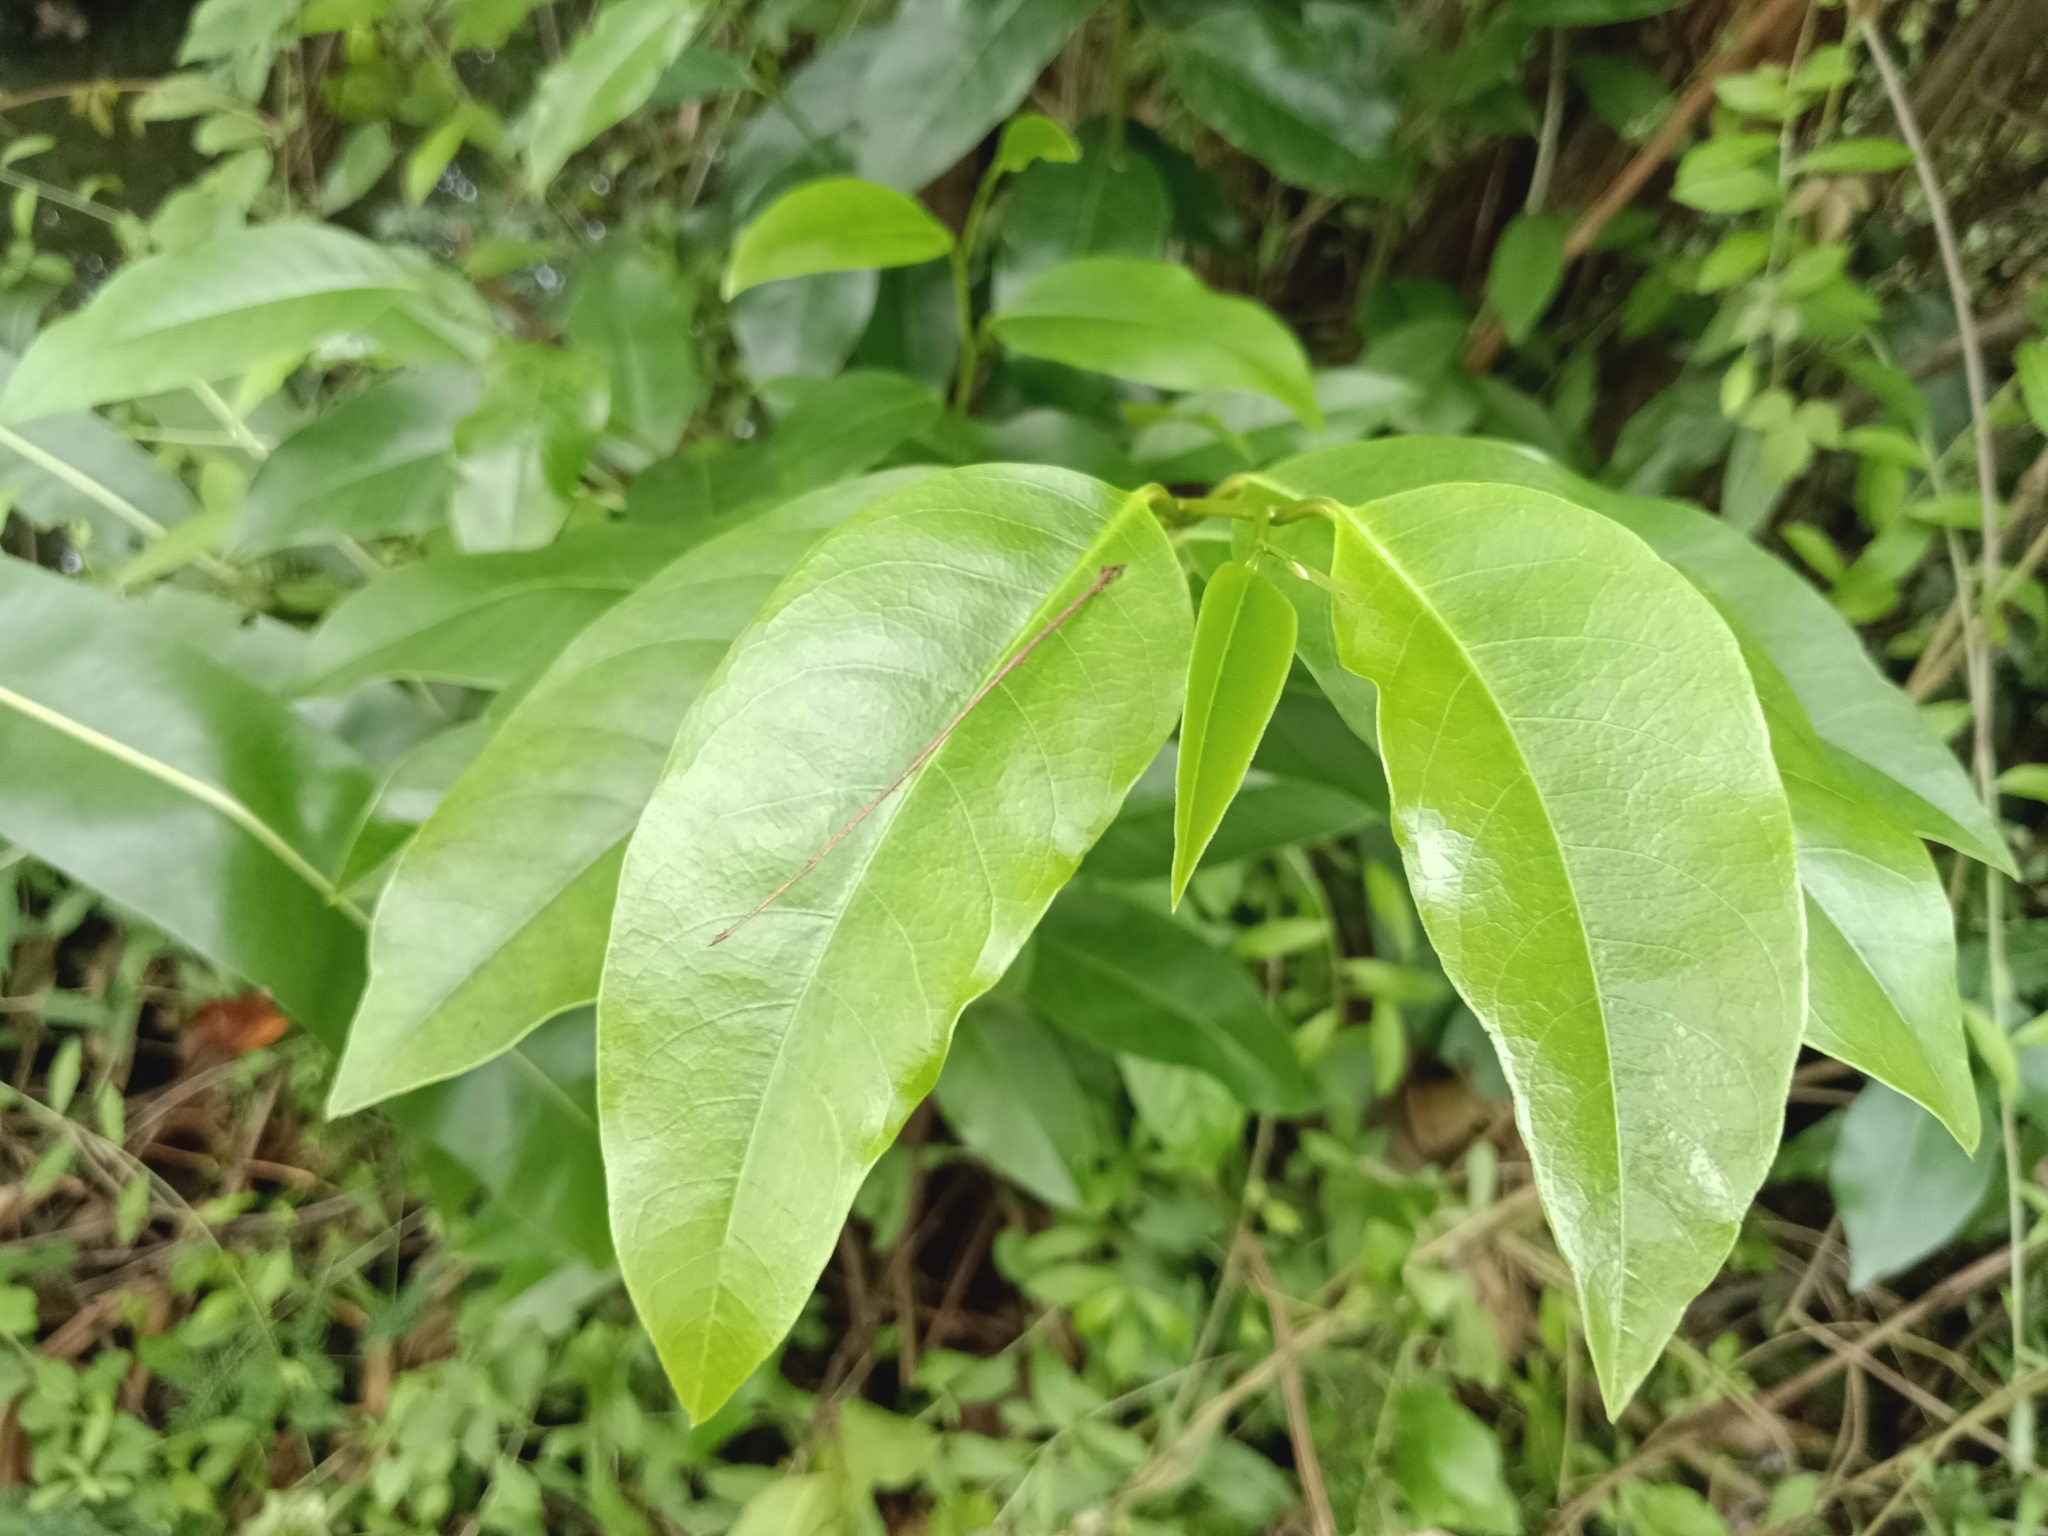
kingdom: Plantae
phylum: Tracheophyta
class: Magnoliopsida
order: Magnoliales
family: Annonaceae
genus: Annona
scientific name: Annona glabra
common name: Monkey apple
